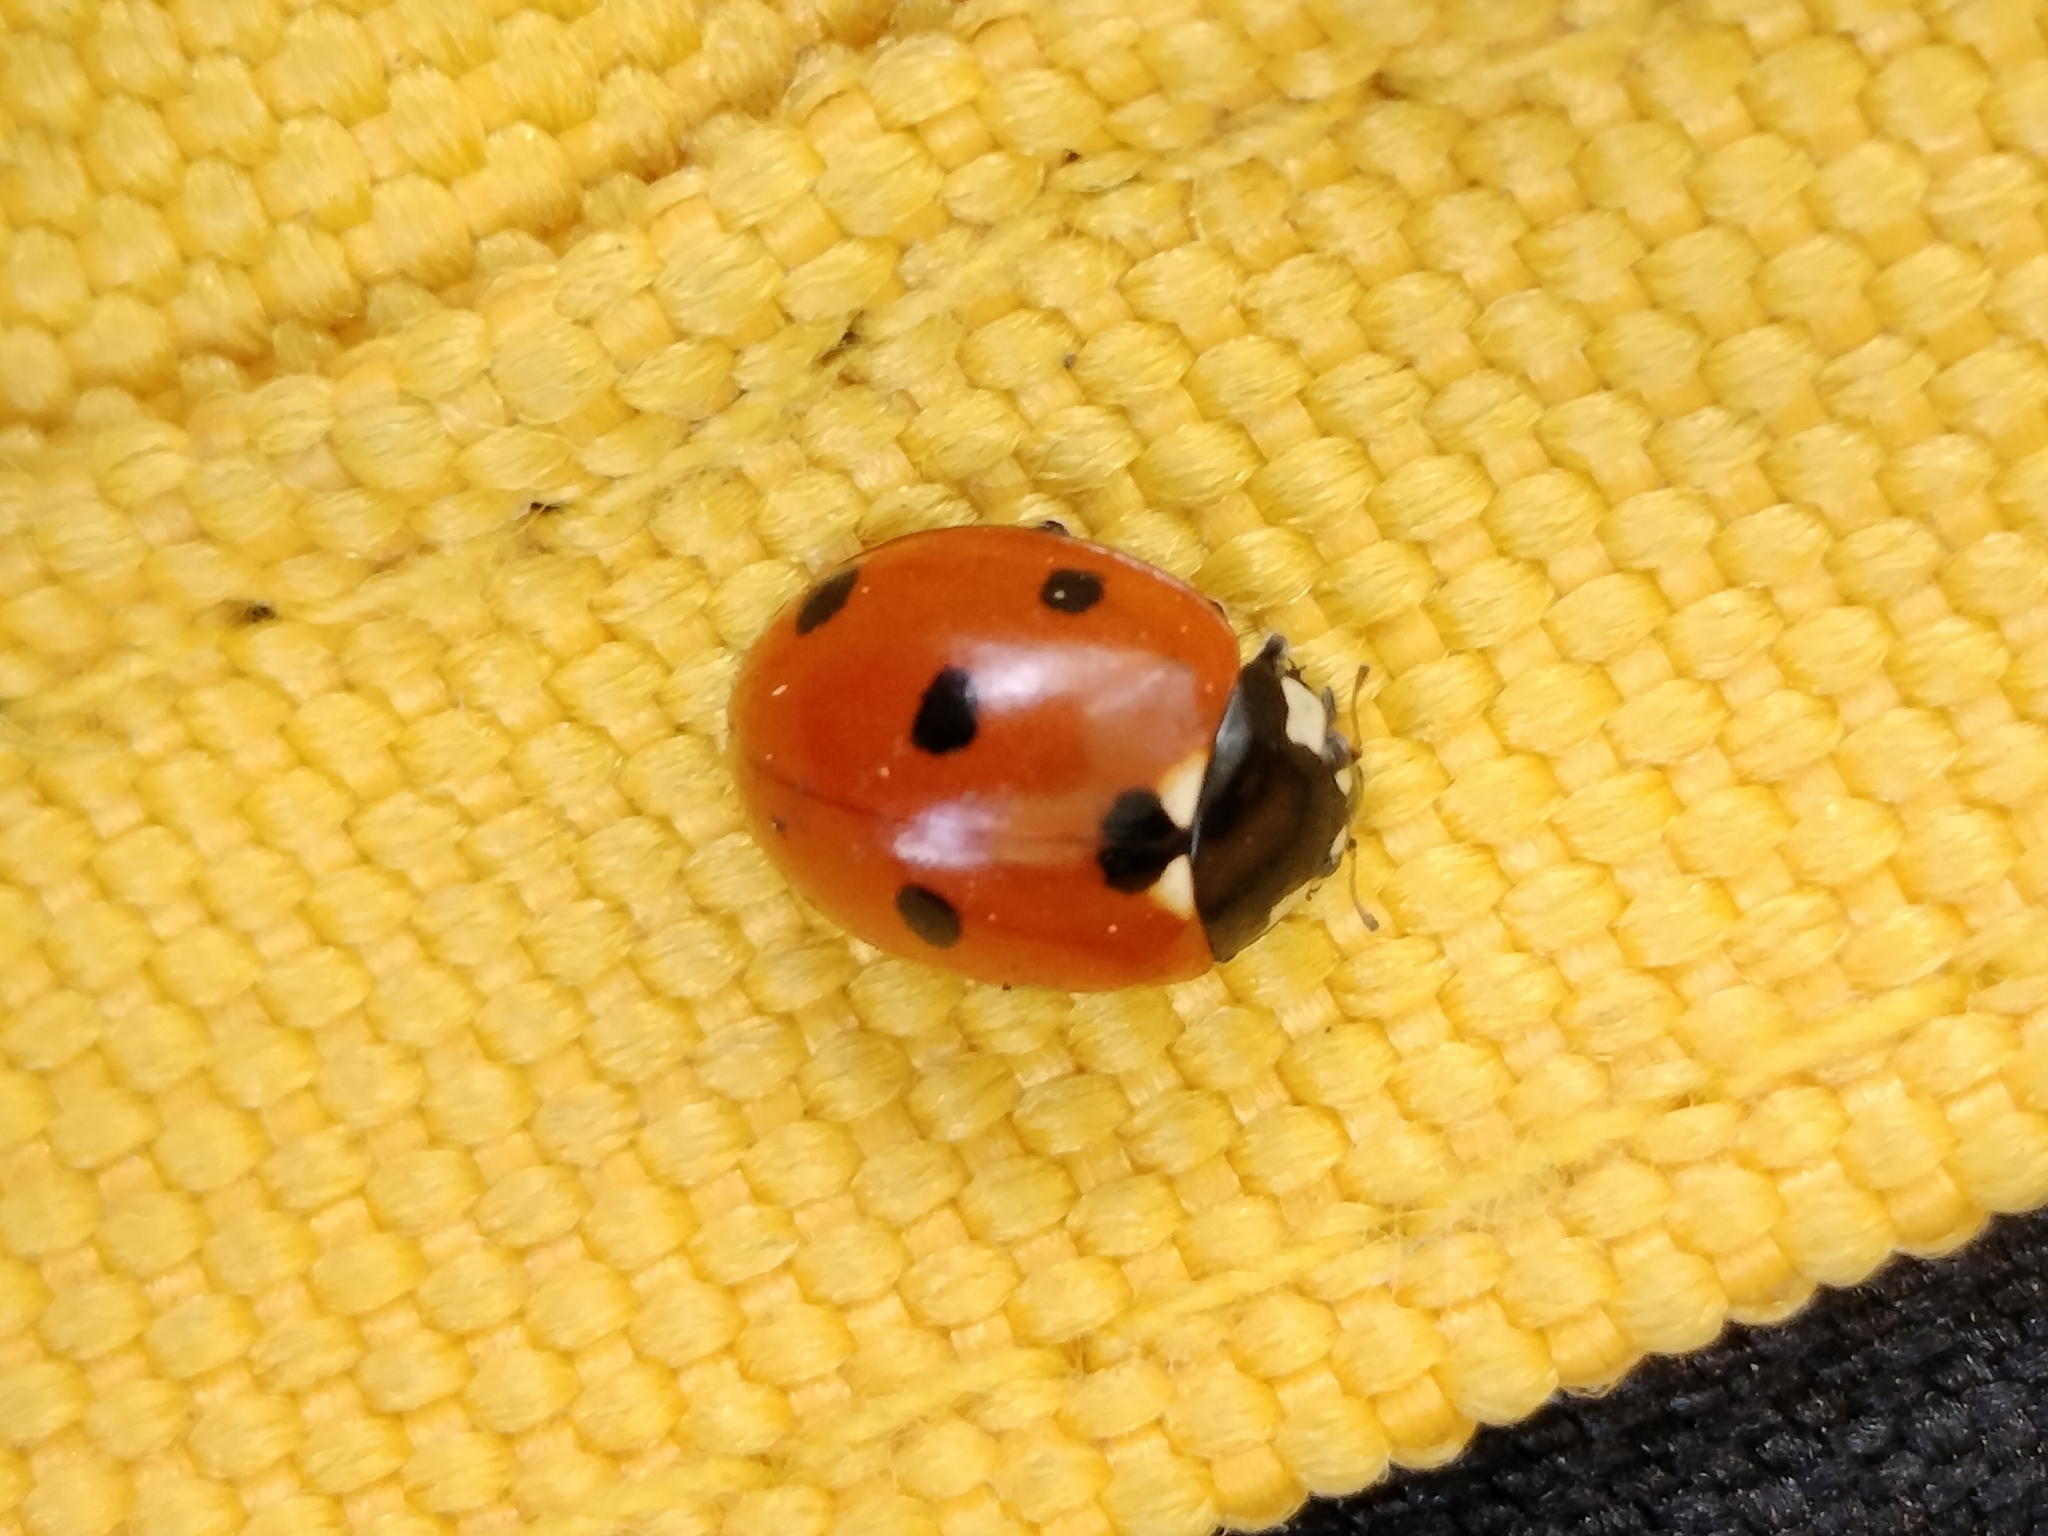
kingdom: Animalia
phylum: Arthropoda
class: Insecta
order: Coleoptera
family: Coccinellidae
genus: Coccinella
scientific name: Coccinella septempunctata
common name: Sevenspotted lady beetle
